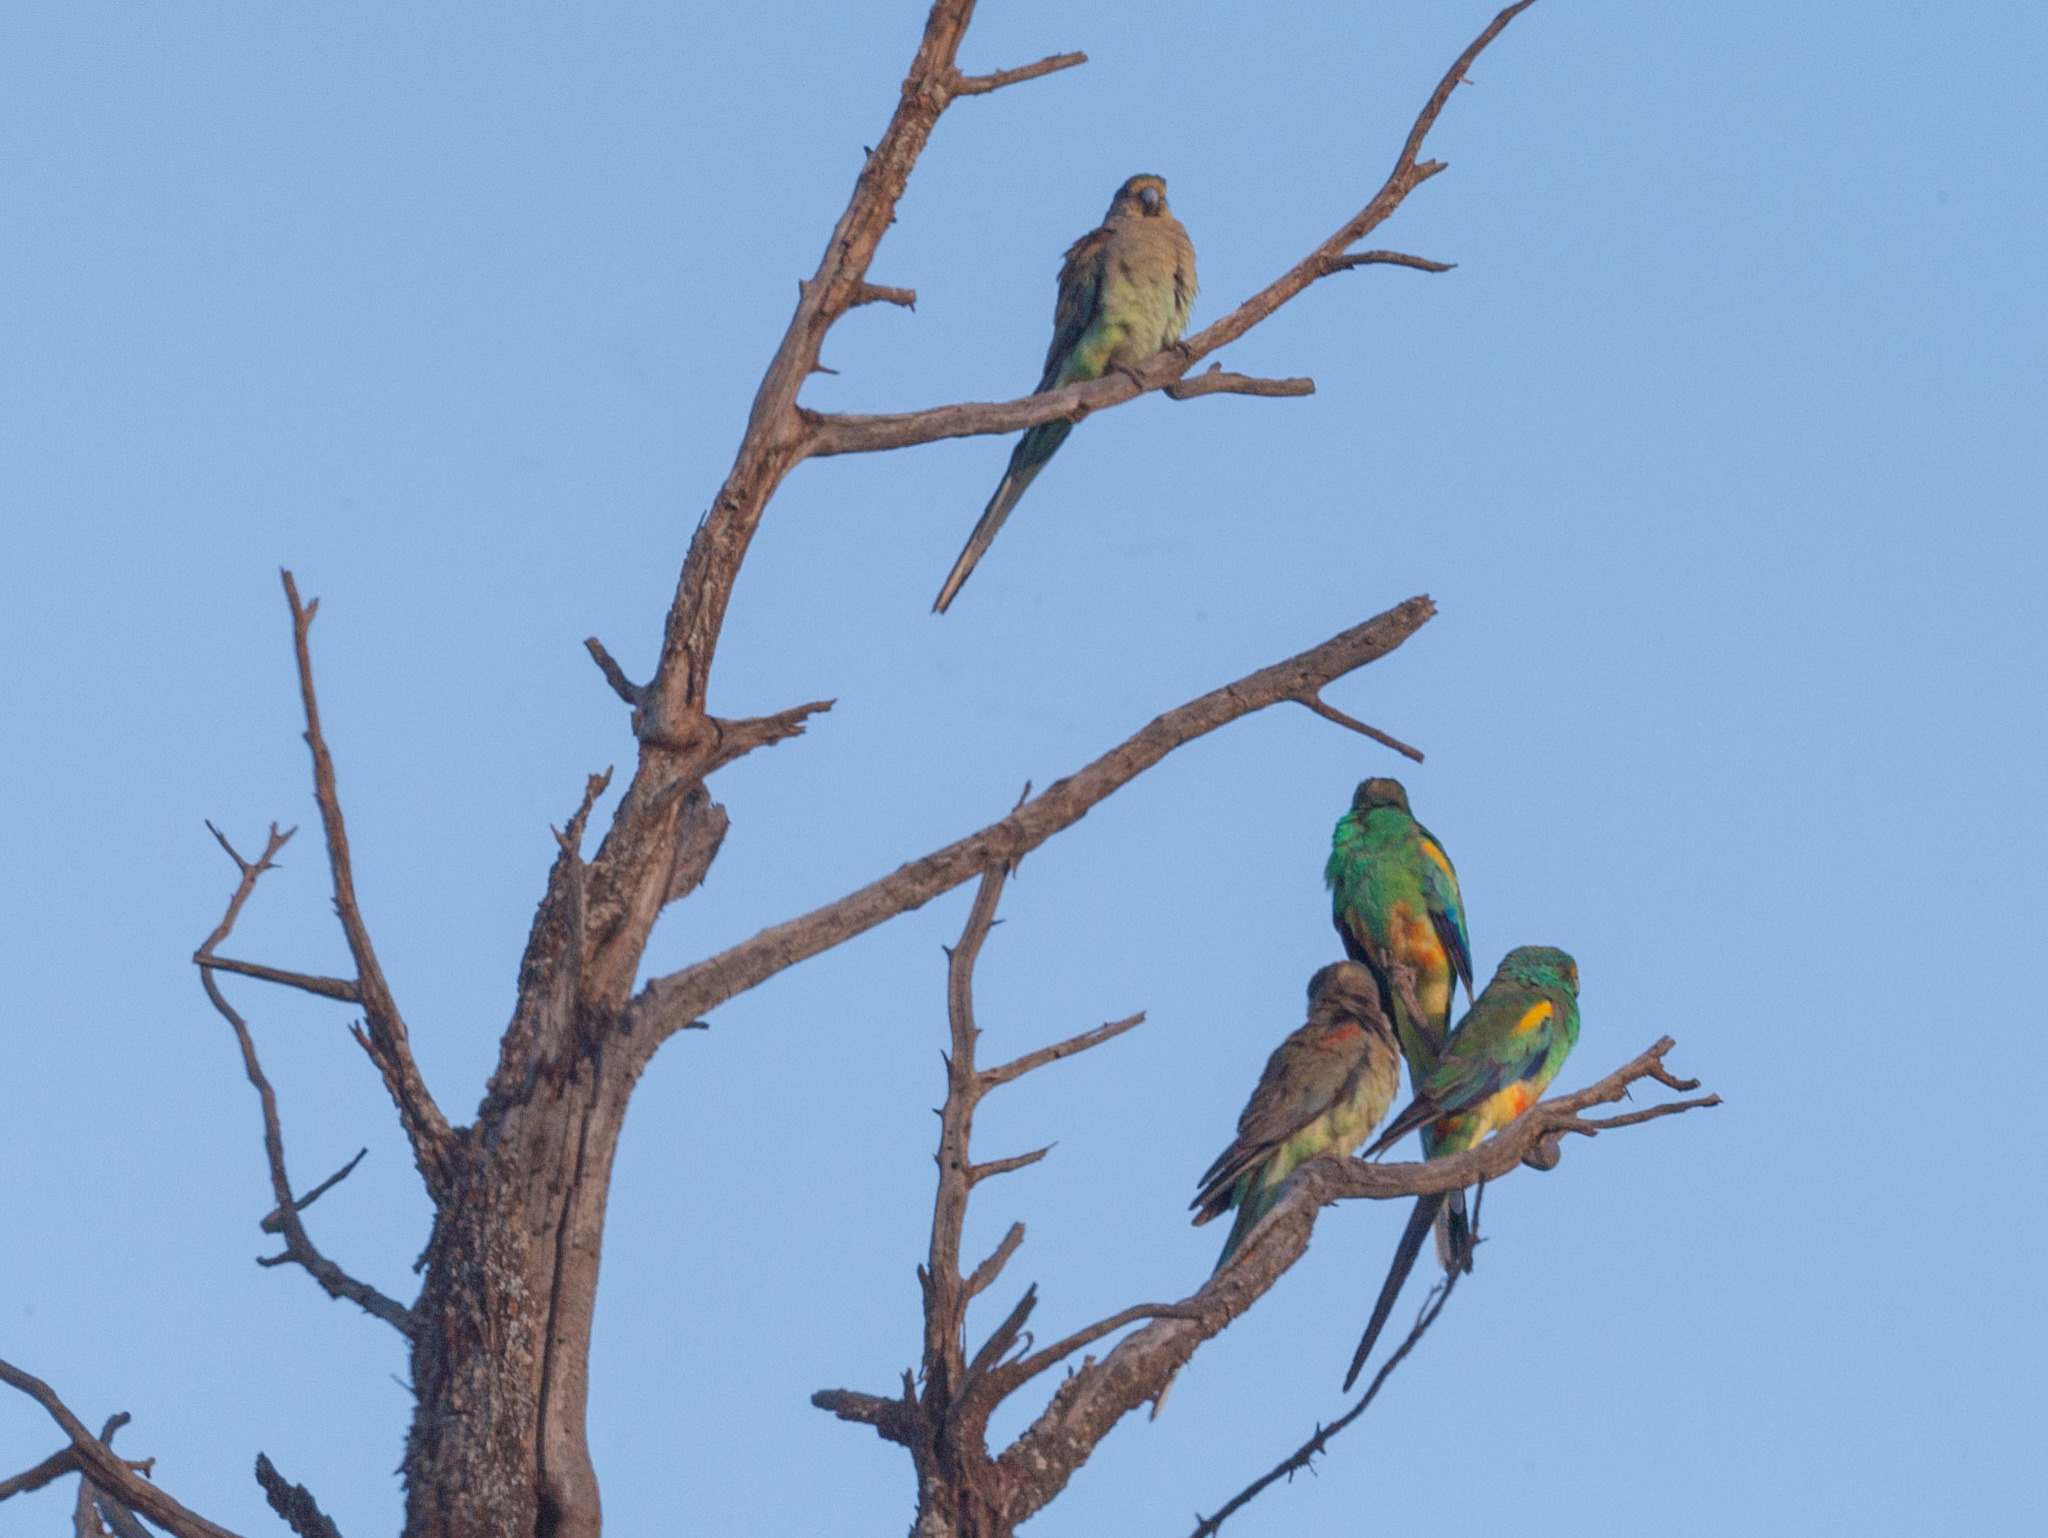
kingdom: Animalia
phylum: Chordata
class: Aves
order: Psittaciformes
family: Psittaculidae
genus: Psephotellus
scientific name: Psephotellus varius
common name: Mulga parrot
